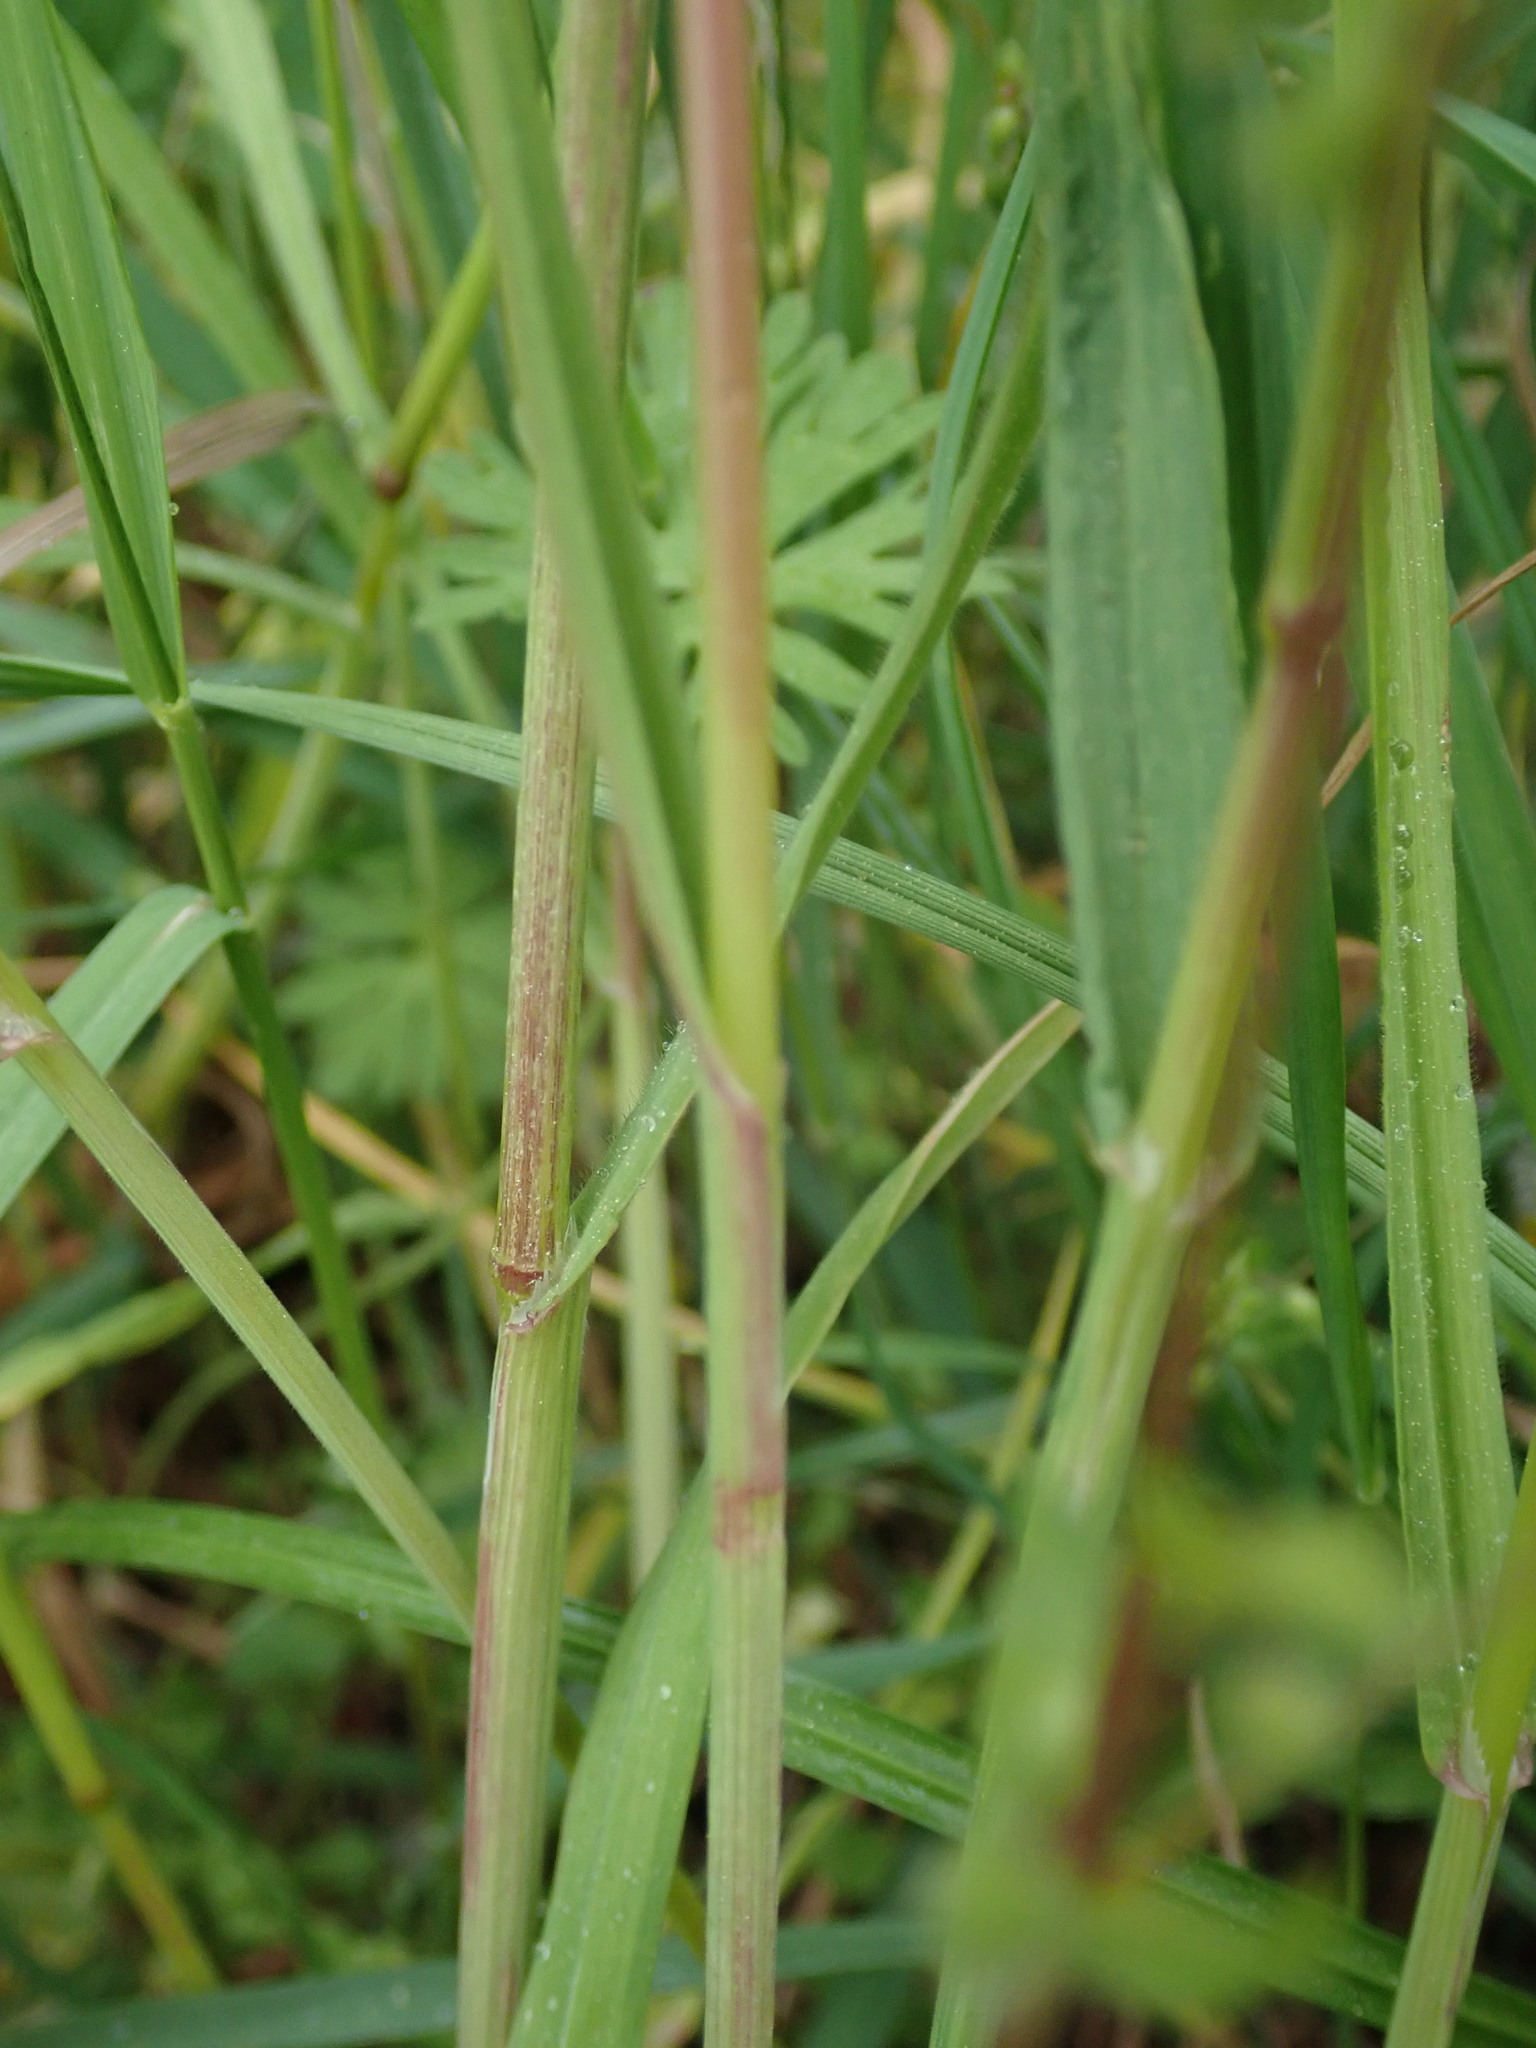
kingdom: Plantae
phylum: Tracheophyta
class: Liliopsida
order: Poales
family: Poaceae
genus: Bromus
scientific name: Bromus sterilis
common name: Poverty brome
